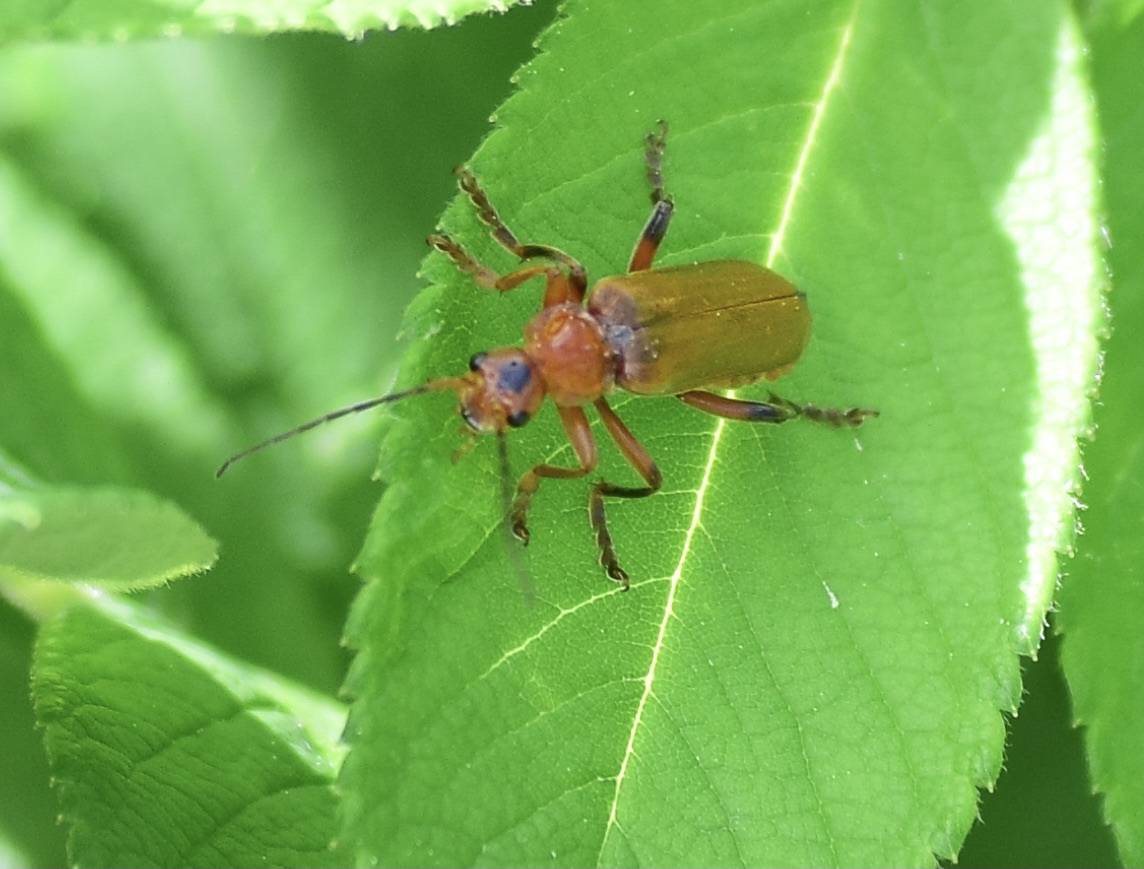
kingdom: Animalia
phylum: Arthropoda
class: Insecta
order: Coleoptera
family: Cantharidae
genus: Cantharis
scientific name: Cantharis livida
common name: Livid soldier beetle
